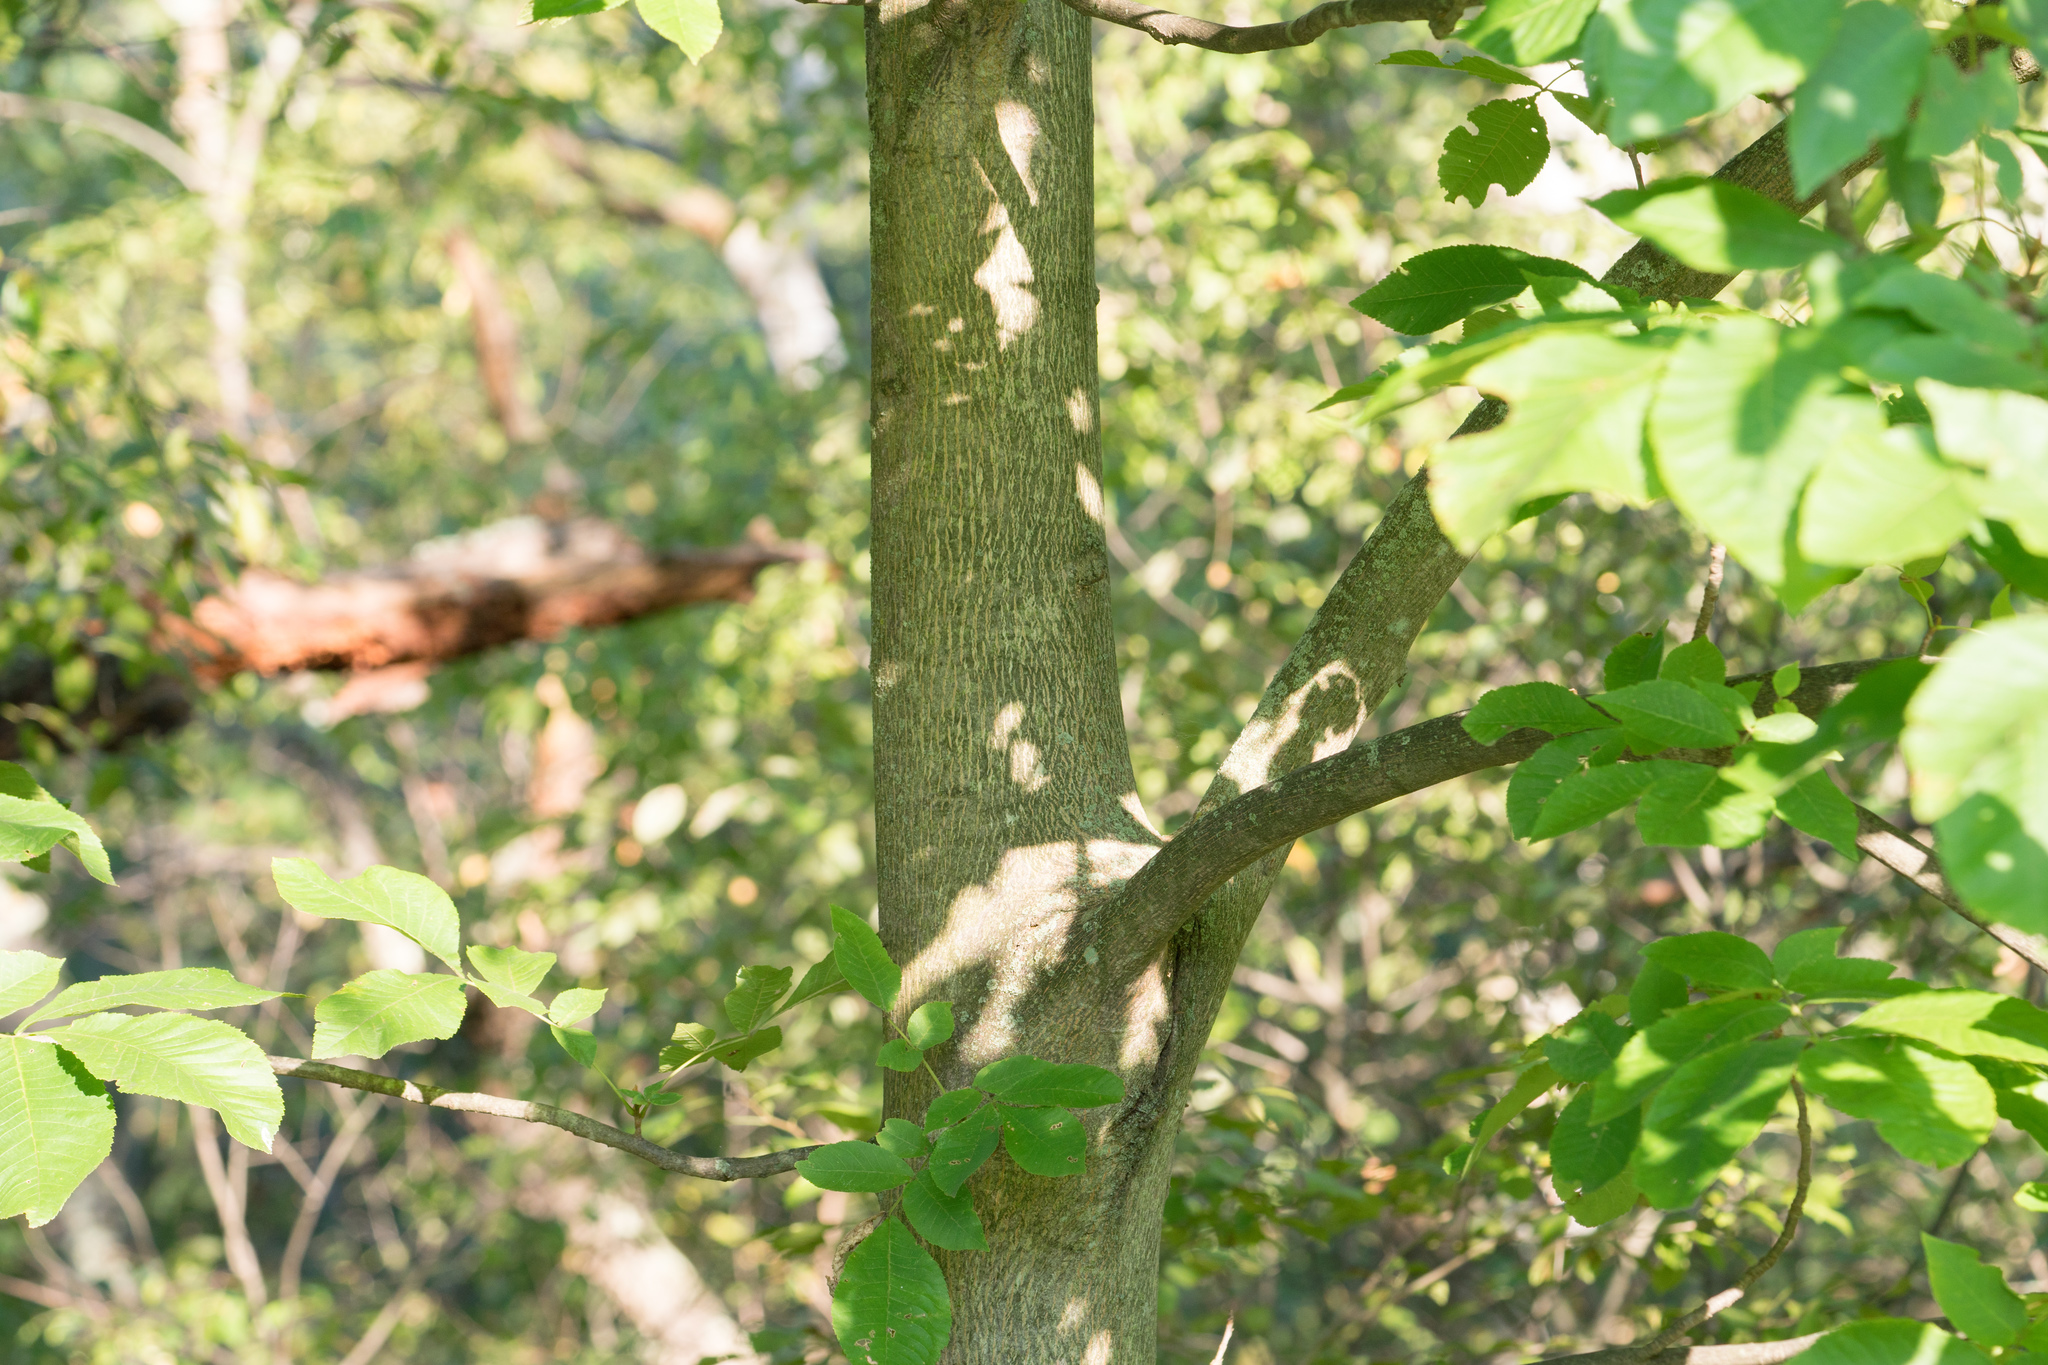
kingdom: Plantae
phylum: Tracheophyta
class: Magnoliopsida
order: Fagales
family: Juglandaceae
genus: Carya
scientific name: Carya cordiformis
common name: Bitternut hickory
